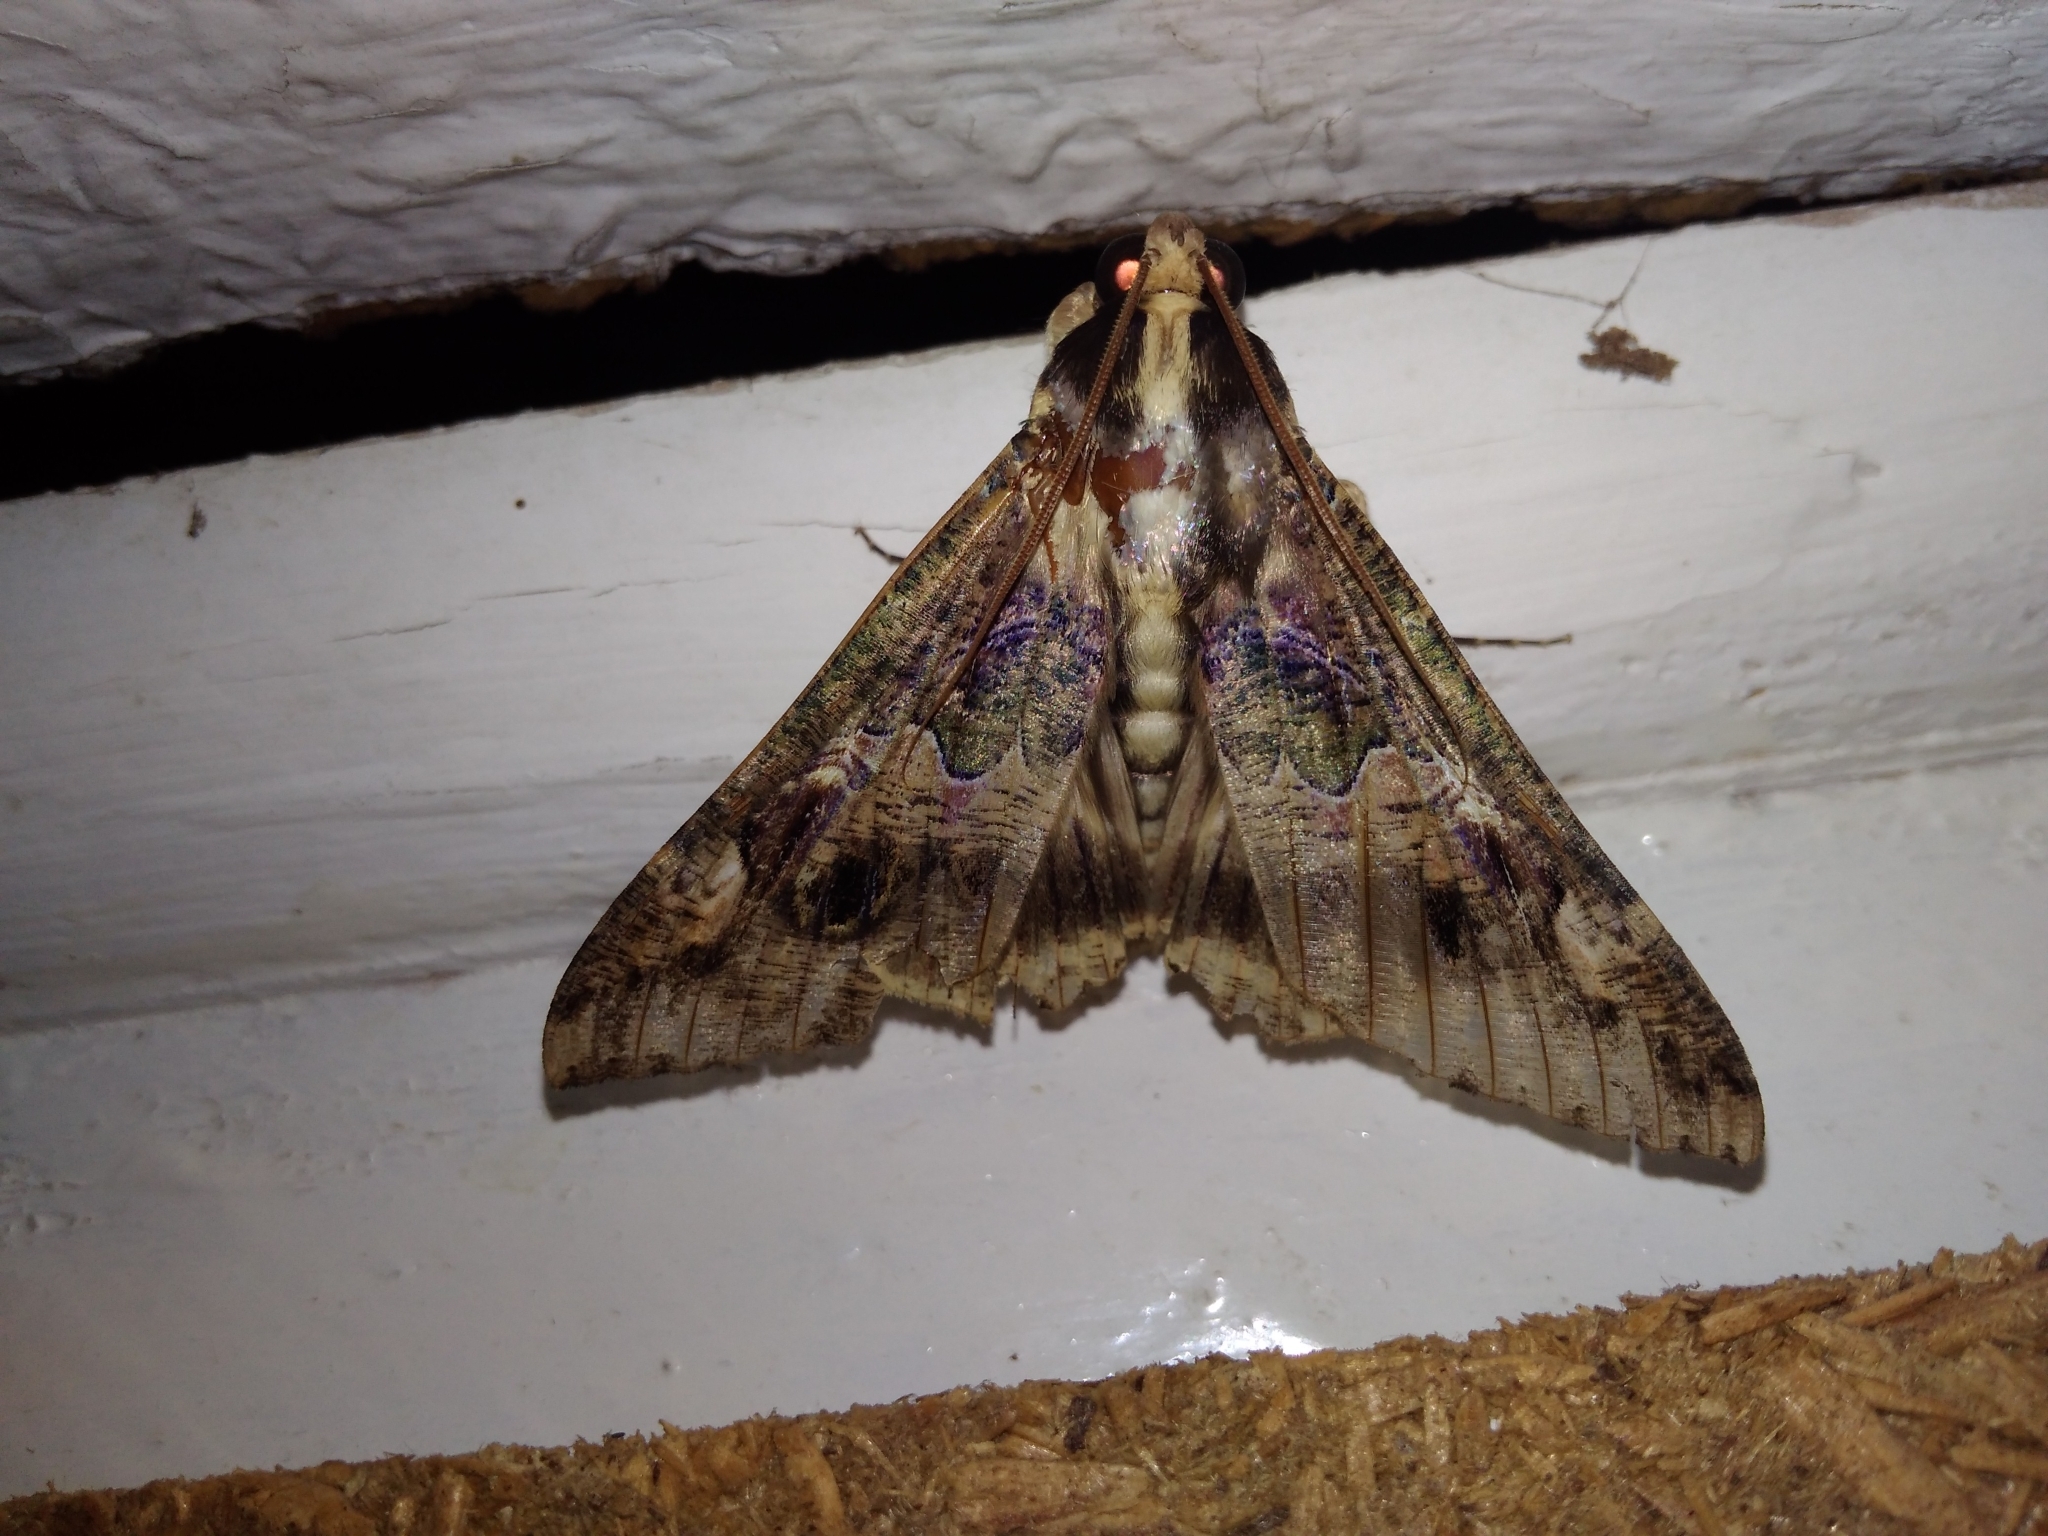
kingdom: Animalia
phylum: Arthropoda
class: Insecta
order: Lepidoptera
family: Erebidae
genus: Sphingomorpha
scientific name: Sphingomorpha chlorea
